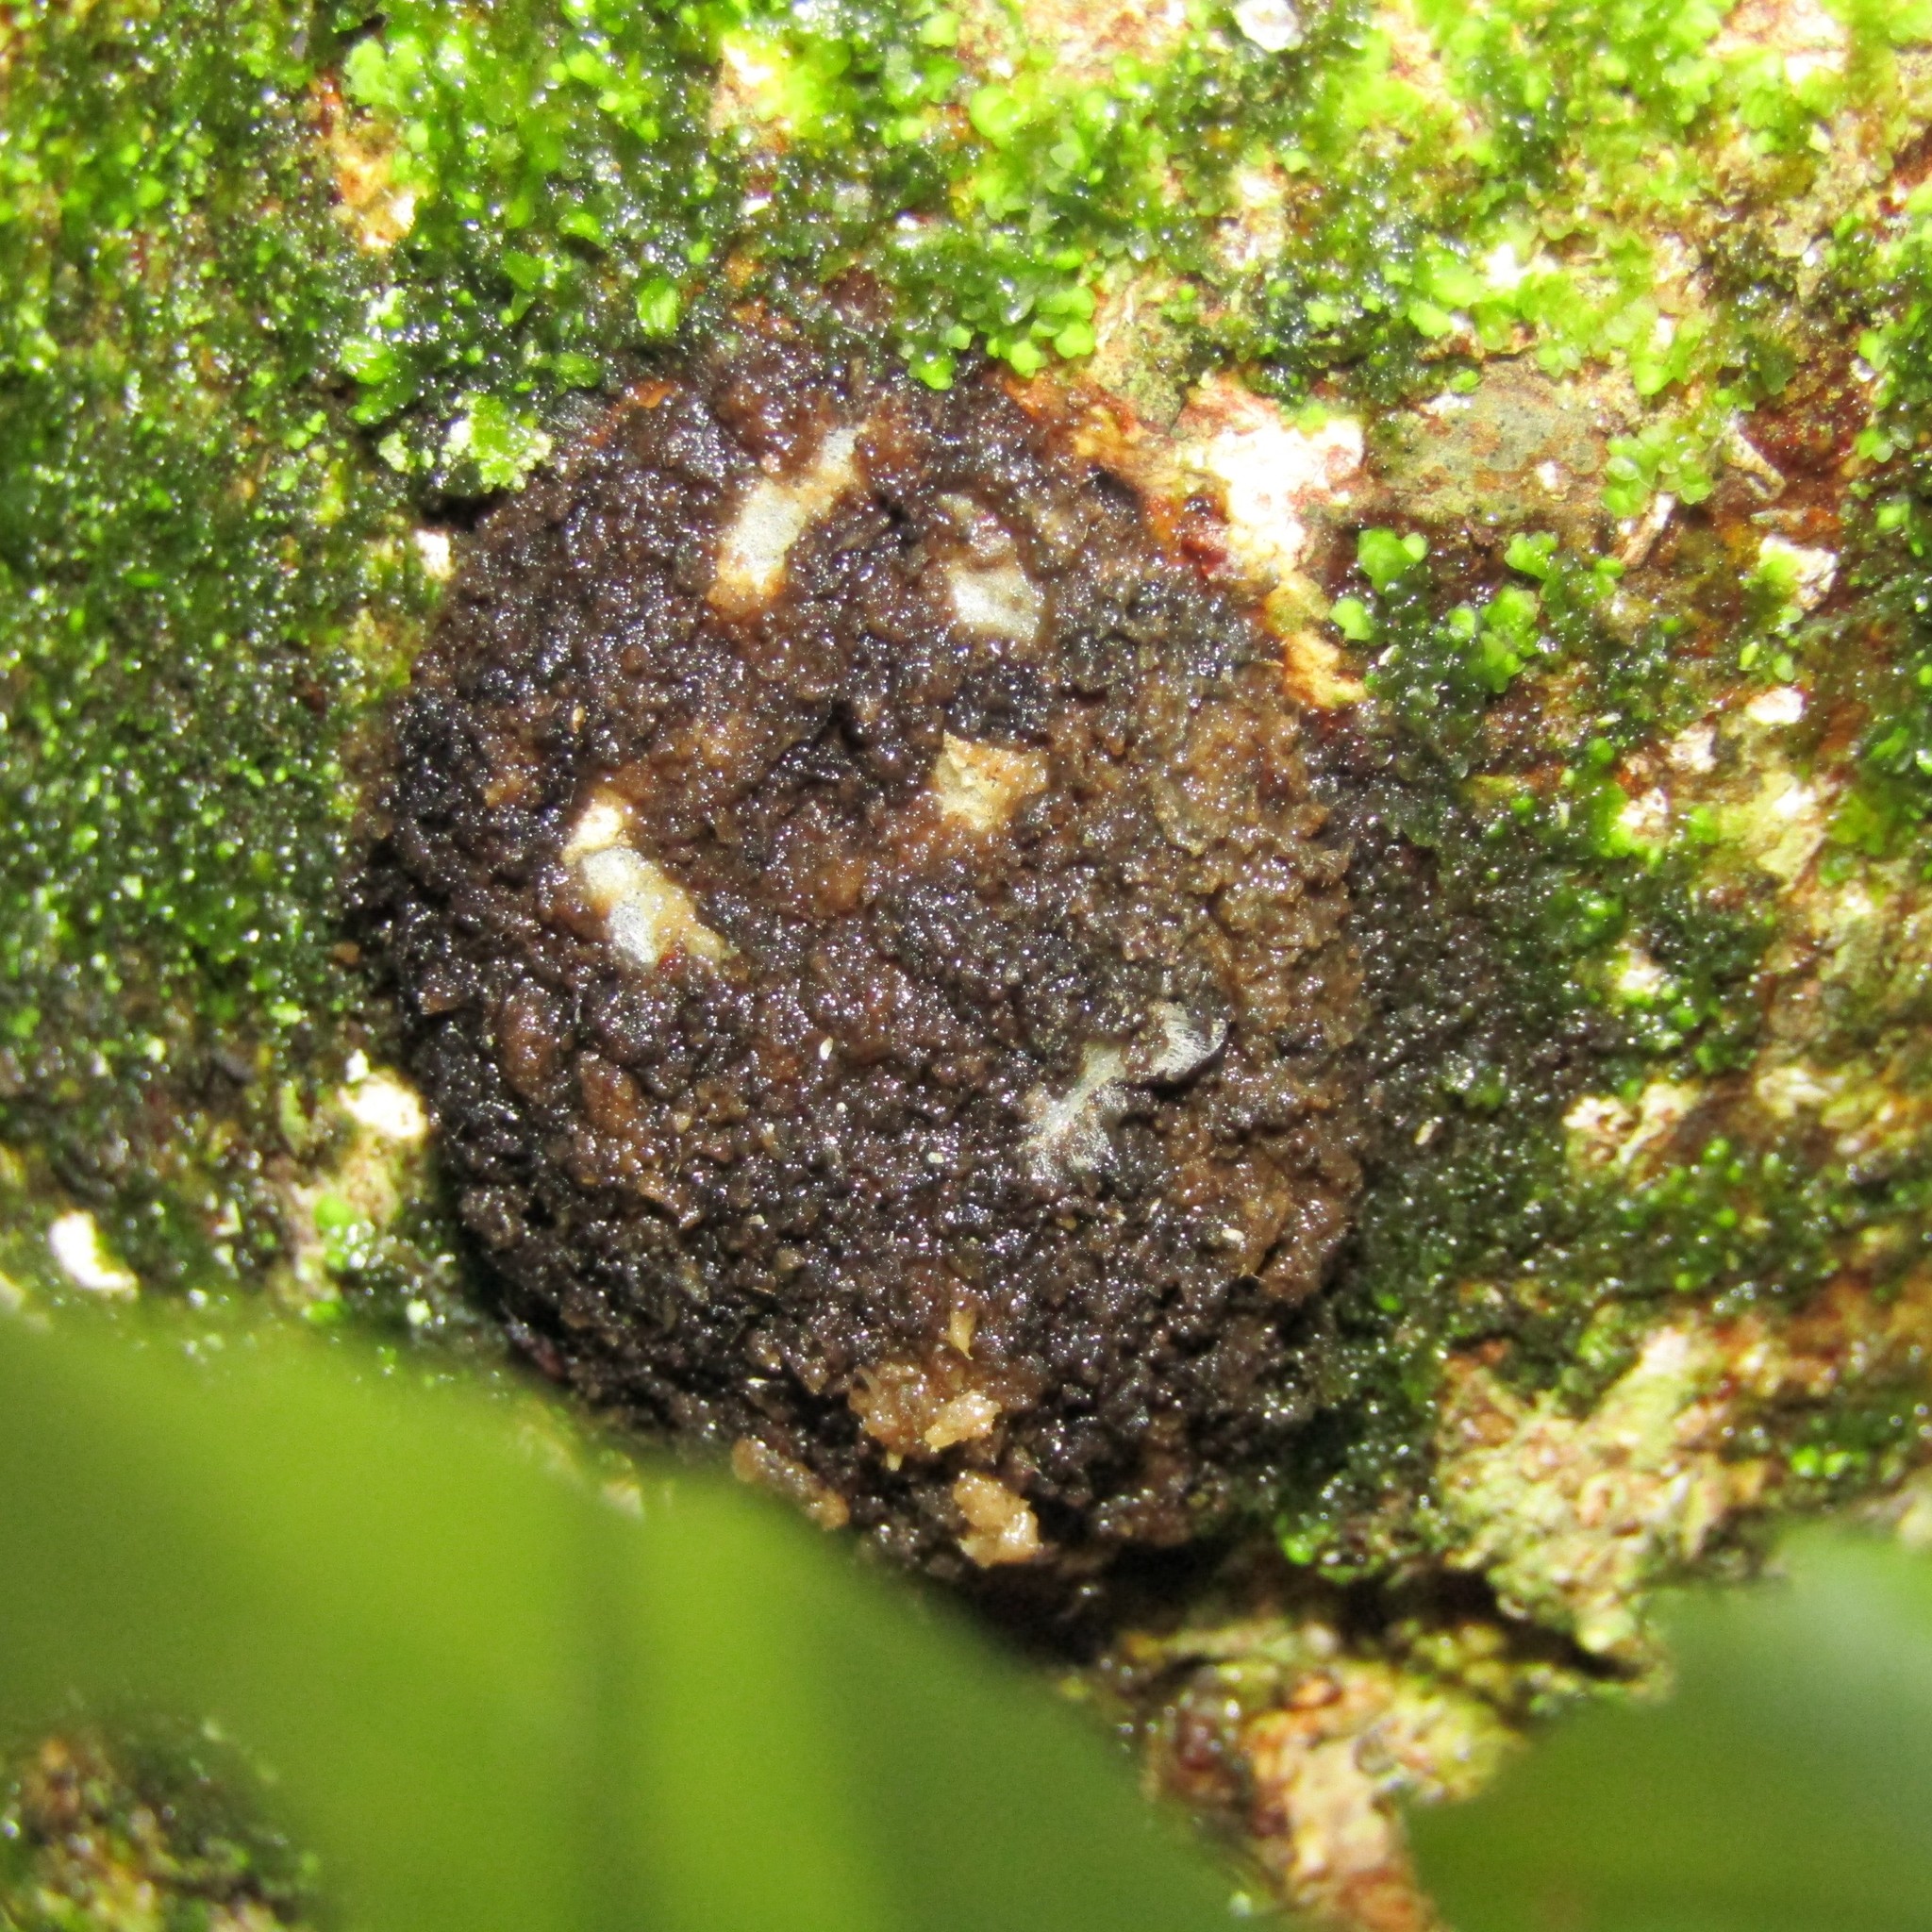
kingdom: Animalia
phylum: Arthropoda
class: Insecta
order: Lepidoptera
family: Hepialidae
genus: Aenetus
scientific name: Aenetus virescens
